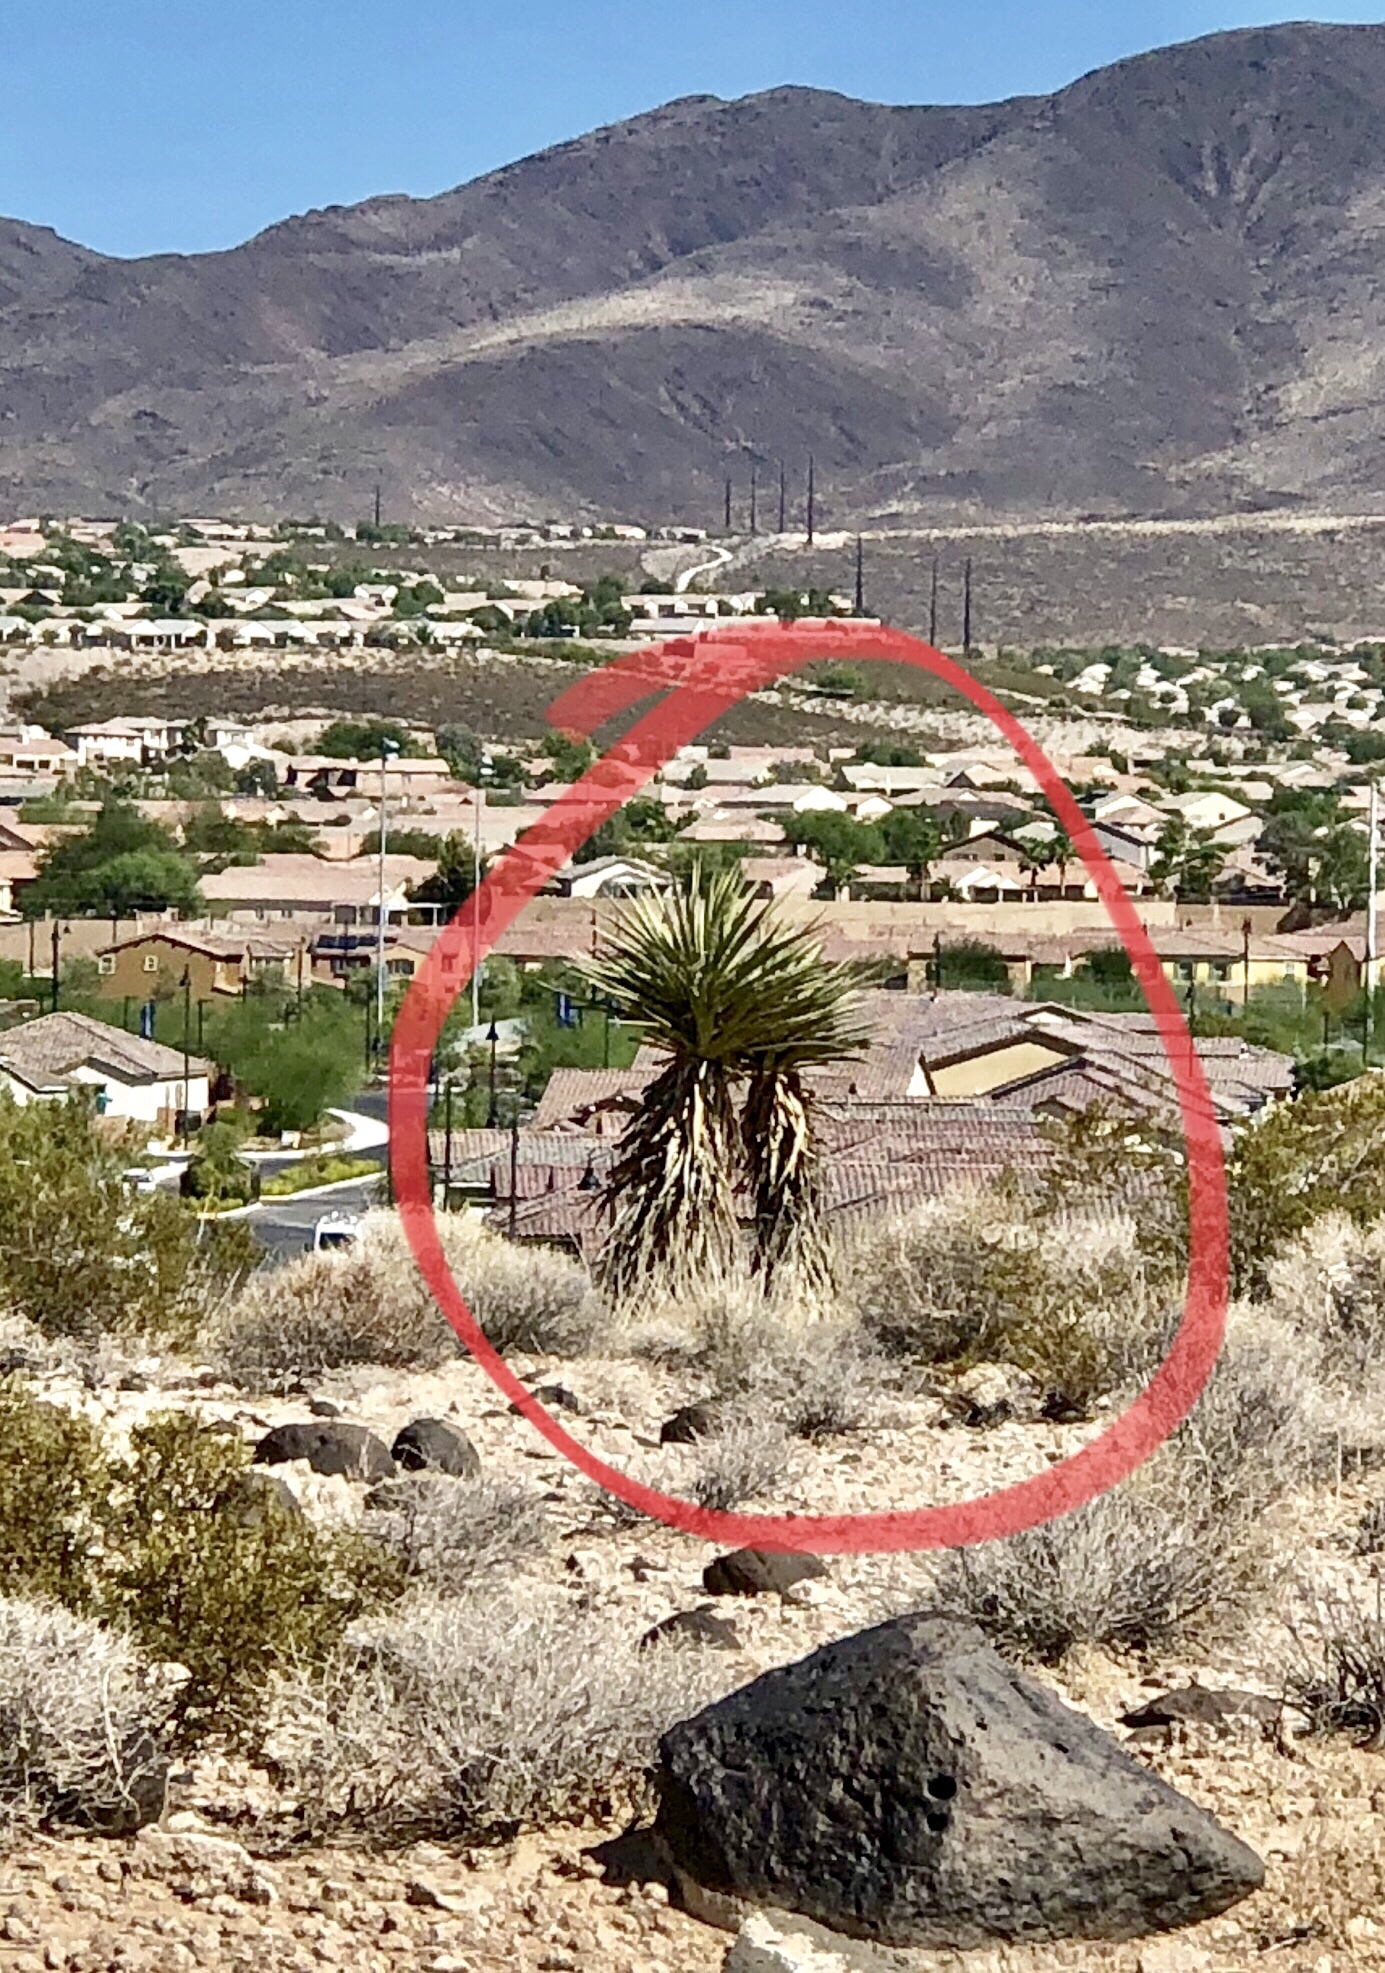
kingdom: Plantae
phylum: Tracheophyta
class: Liliopsida
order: Asparagales
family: Asparagaceae
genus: Yucca
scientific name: Yucca schidigera
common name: Mojave yucca
